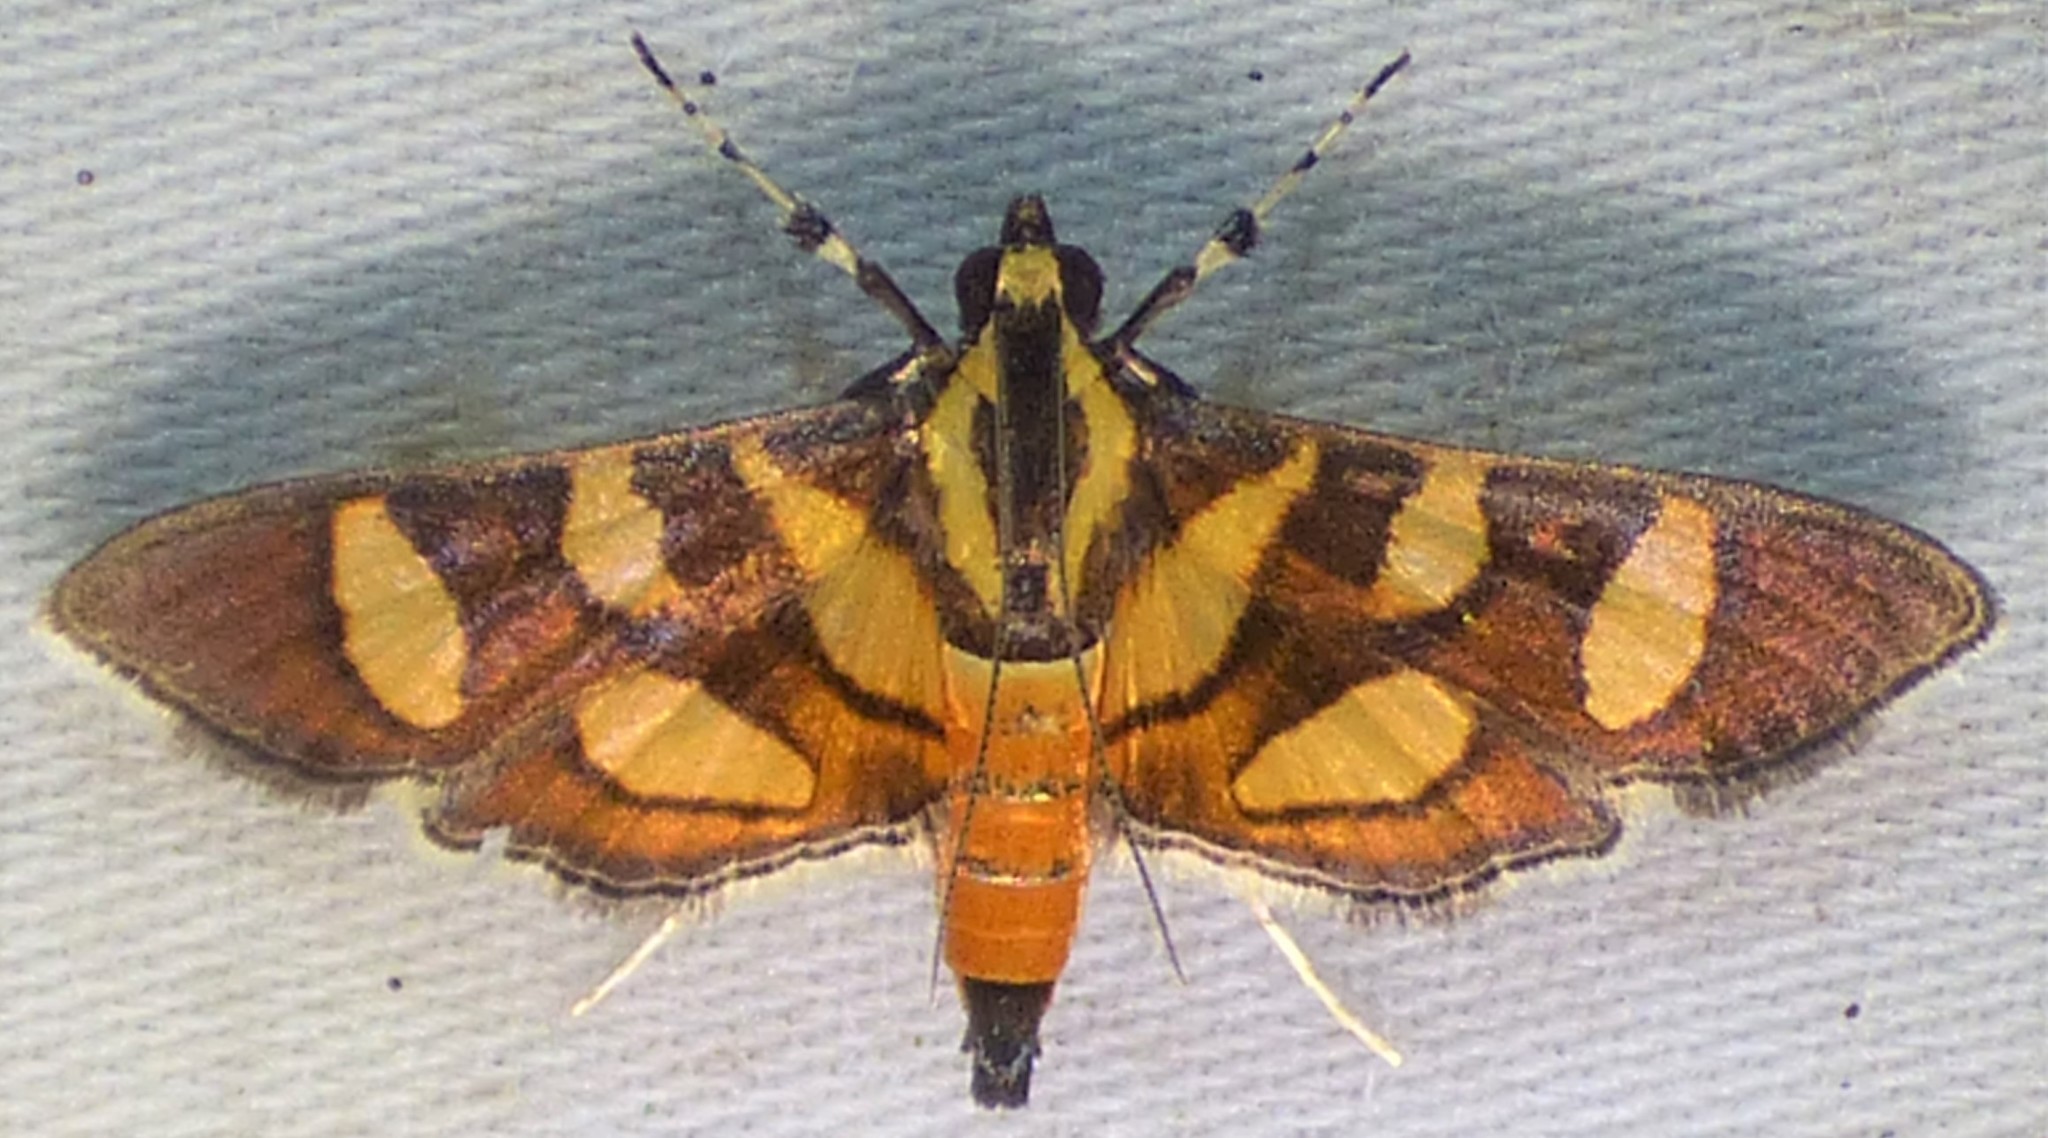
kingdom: Animalia
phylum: Arthropoda
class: Insecta
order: Lepidoptera
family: Crambidae
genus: Syngamia
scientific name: Syngamia florella
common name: Orange-spotted flower moth
